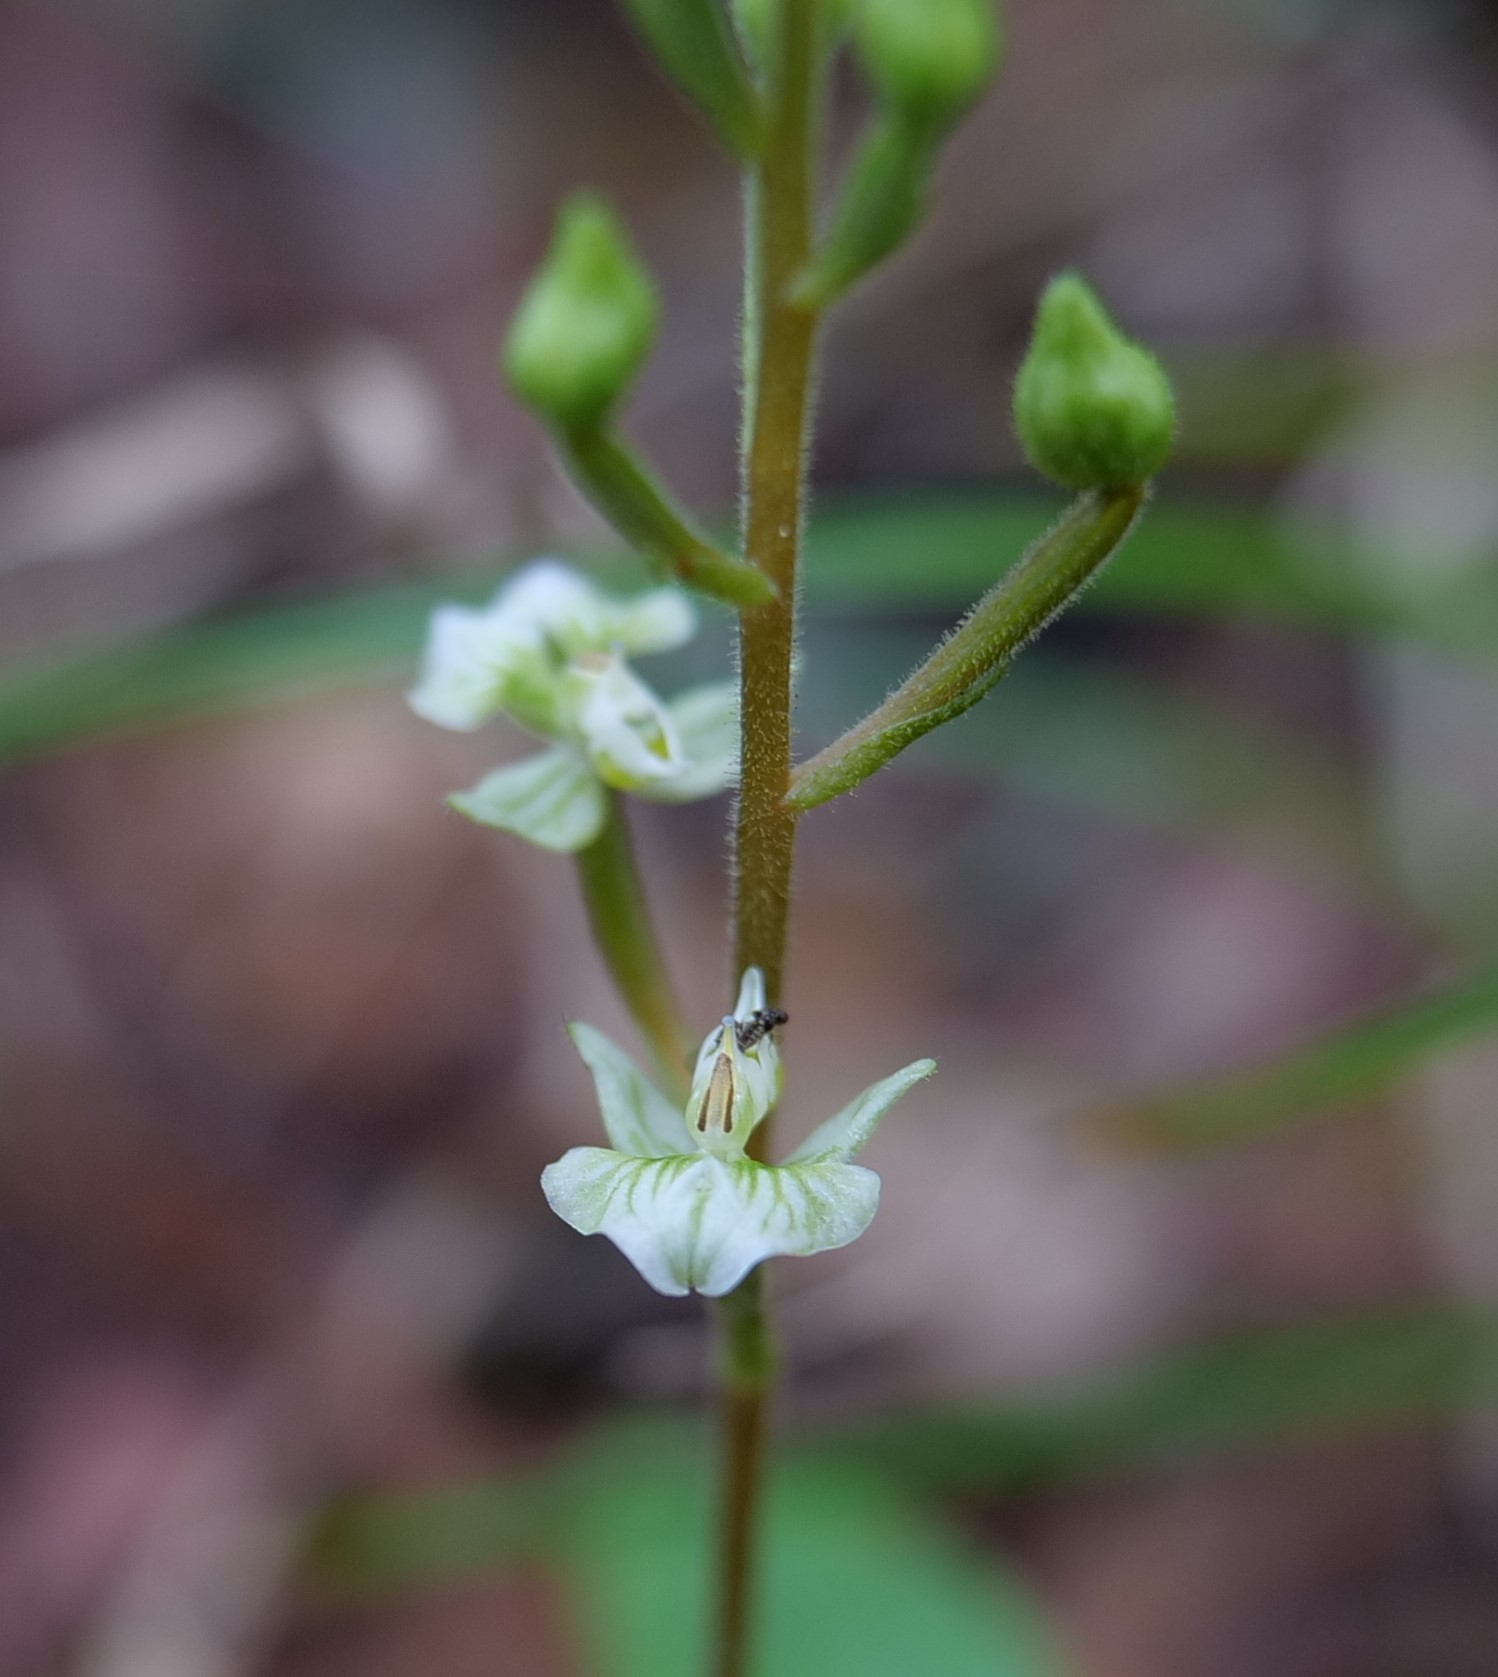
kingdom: Plantae
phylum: Tracheophyta
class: Liliopsida
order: Asparagales
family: Orchidaceae
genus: Ponthieva
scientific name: Ponthieva racemosa
